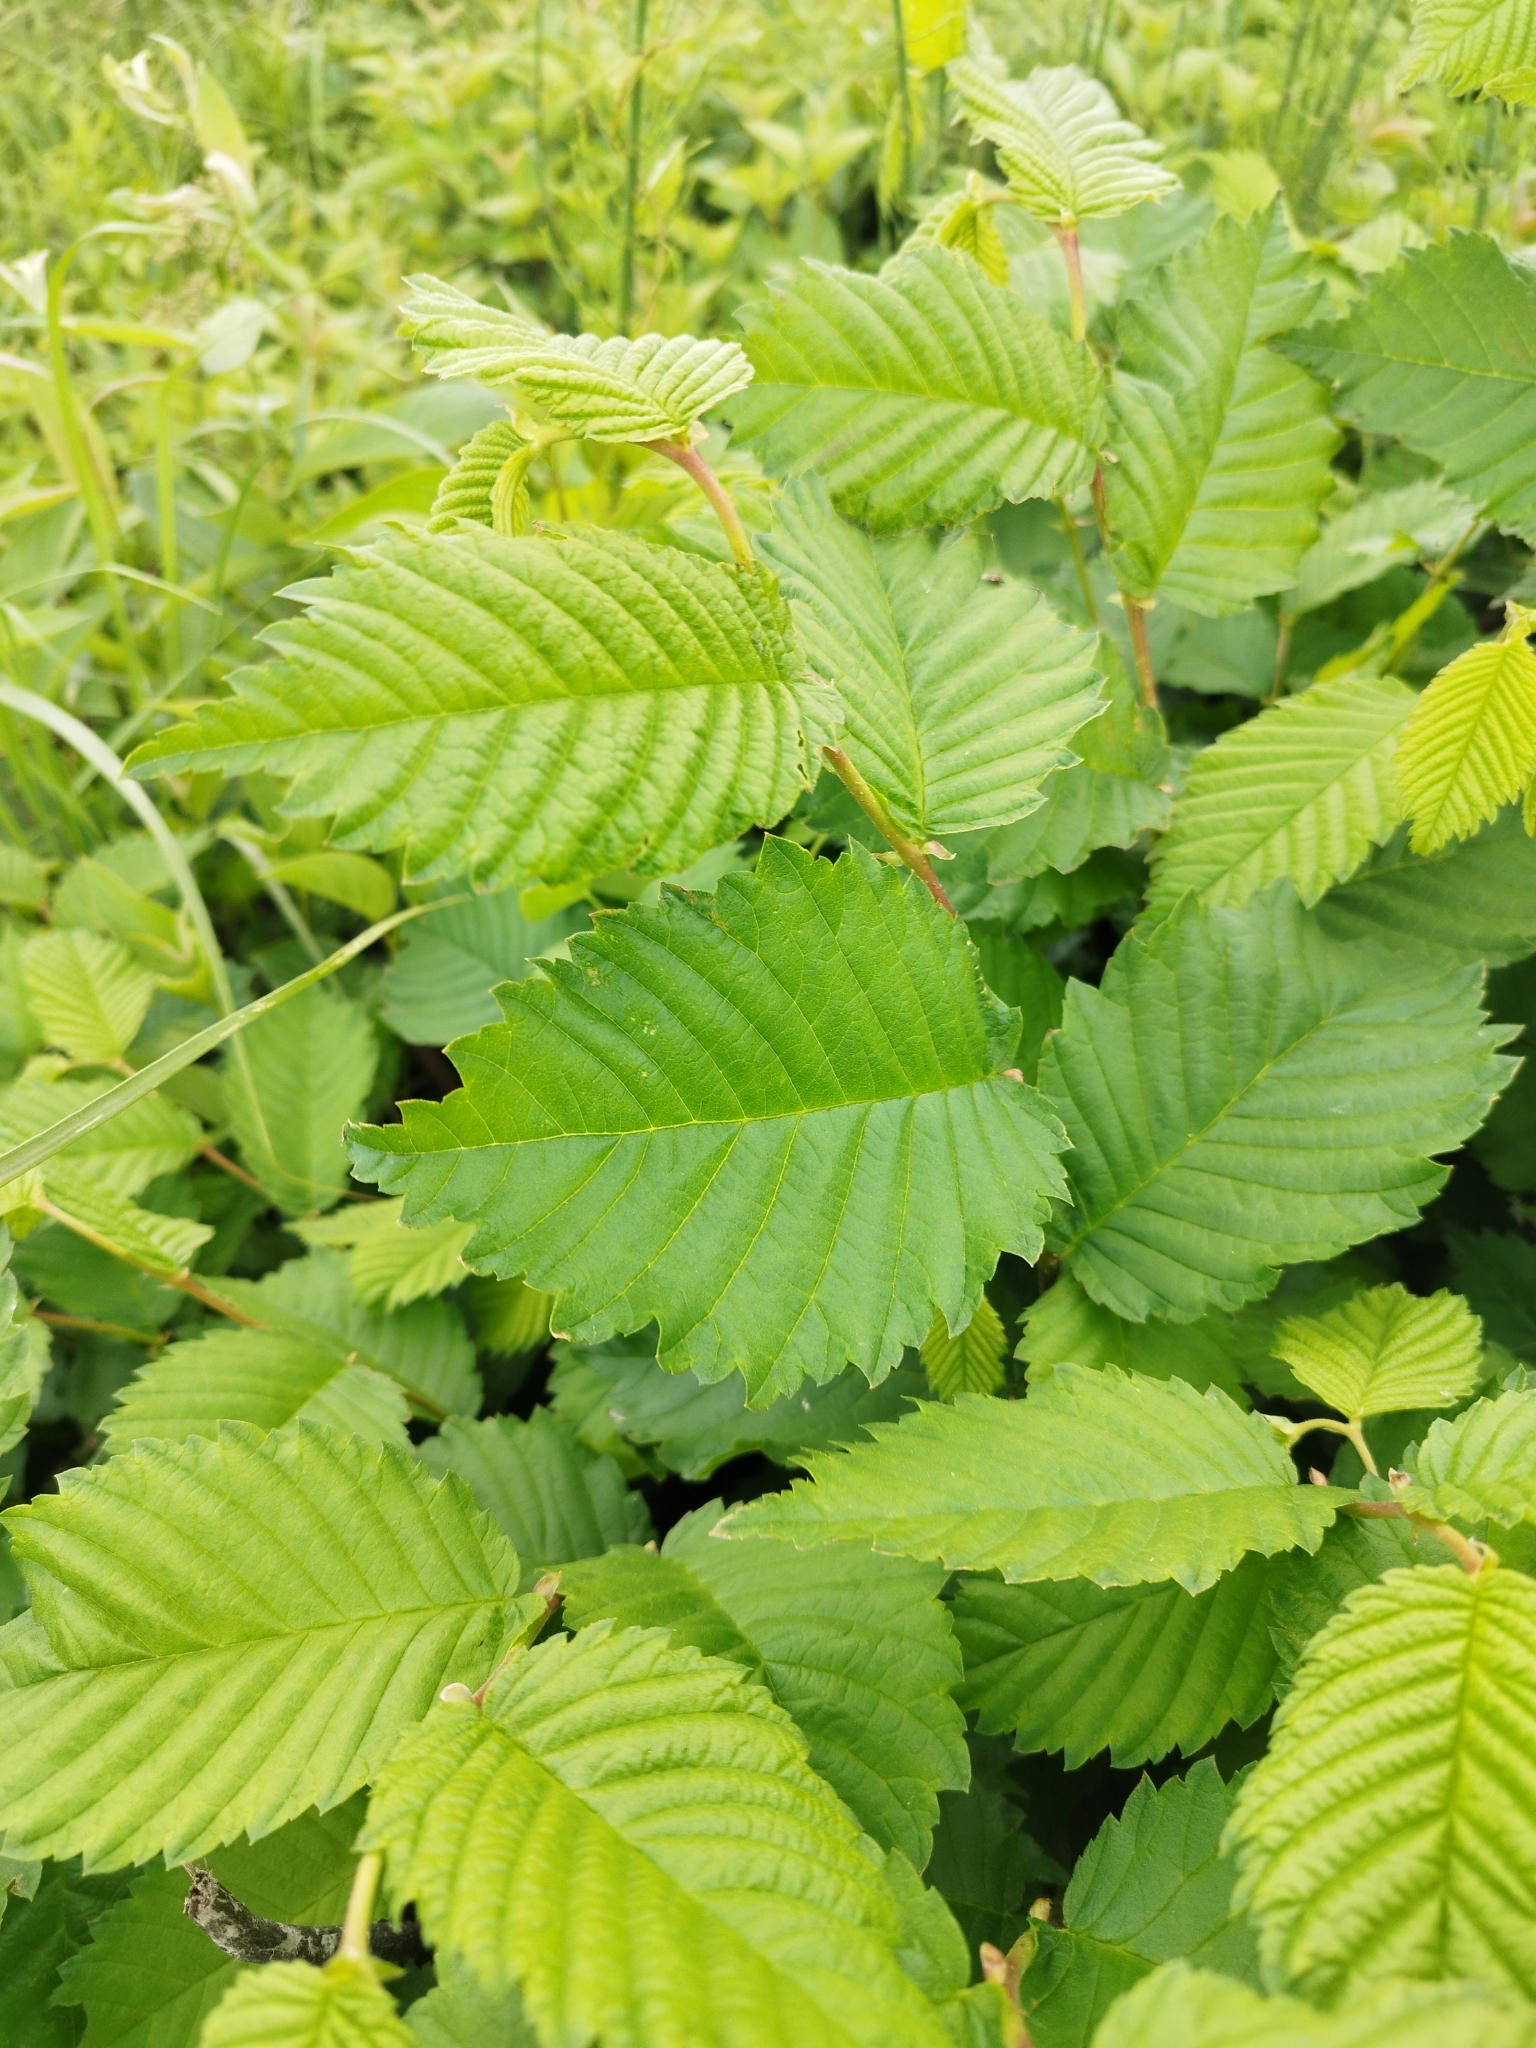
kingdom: Plantae
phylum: Tracheophyta
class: Magnoliopsida
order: Rosales
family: Ulmaceae
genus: Ulmus
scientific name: Ulmus laevis
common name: European white-elm
